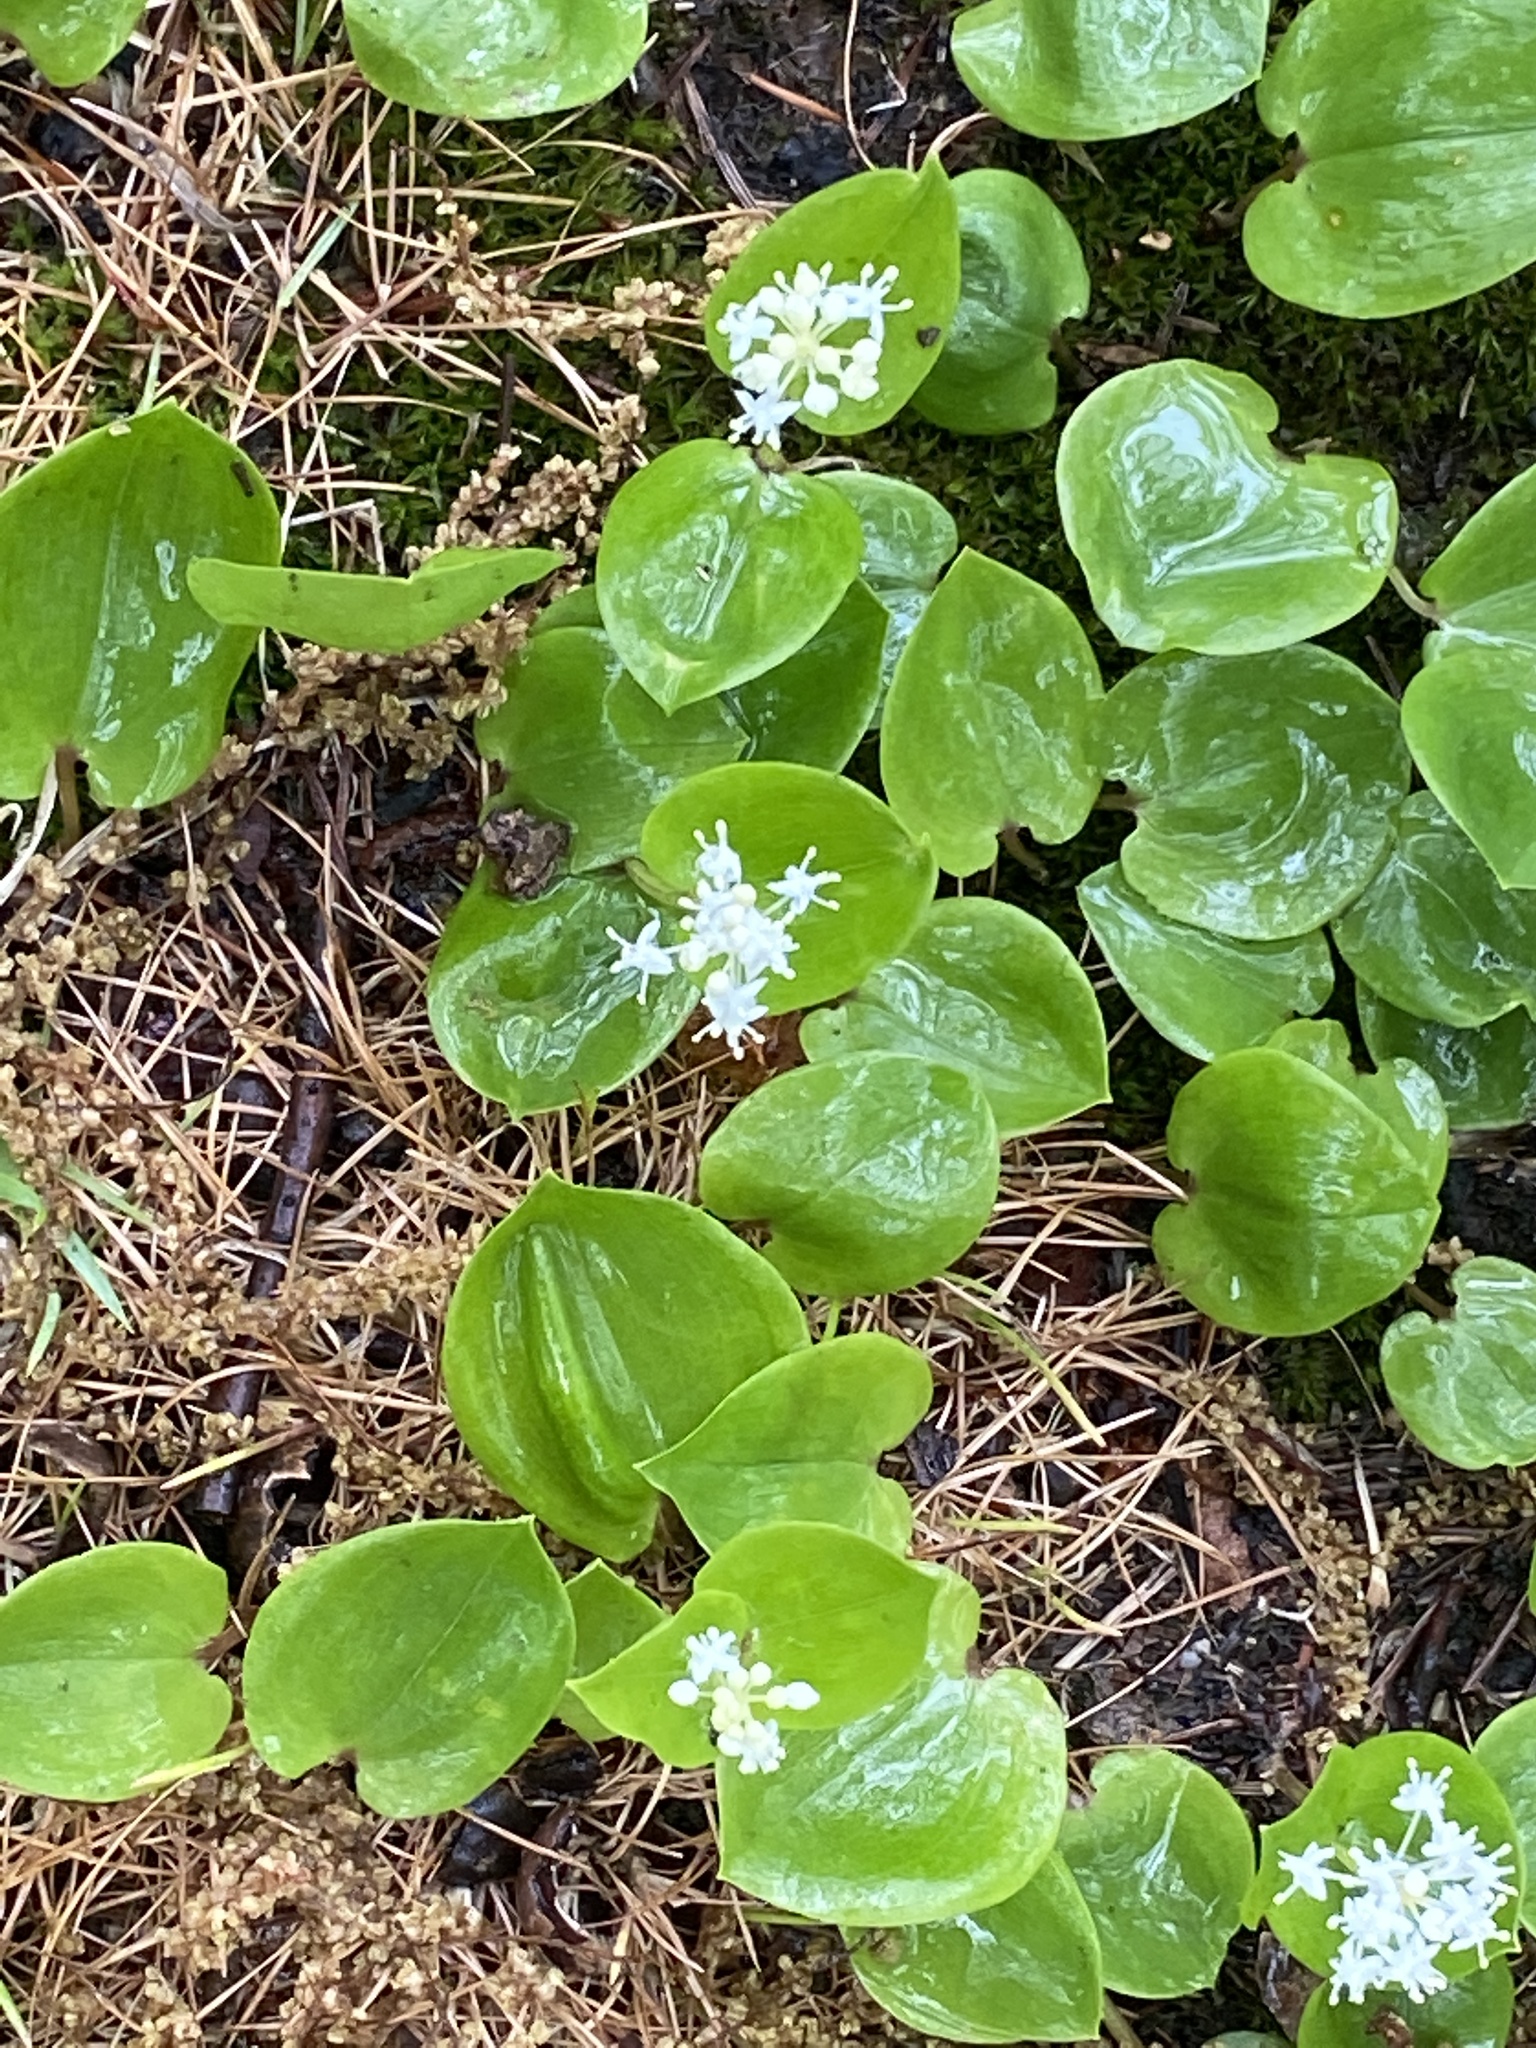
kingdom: Plantae
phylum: Tracheophyta
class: Liliopsida
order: Asparagales
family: Asparagaceae
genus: Maianthemum
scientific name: Maianthemum canadense
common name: False lily-of-the-valley
